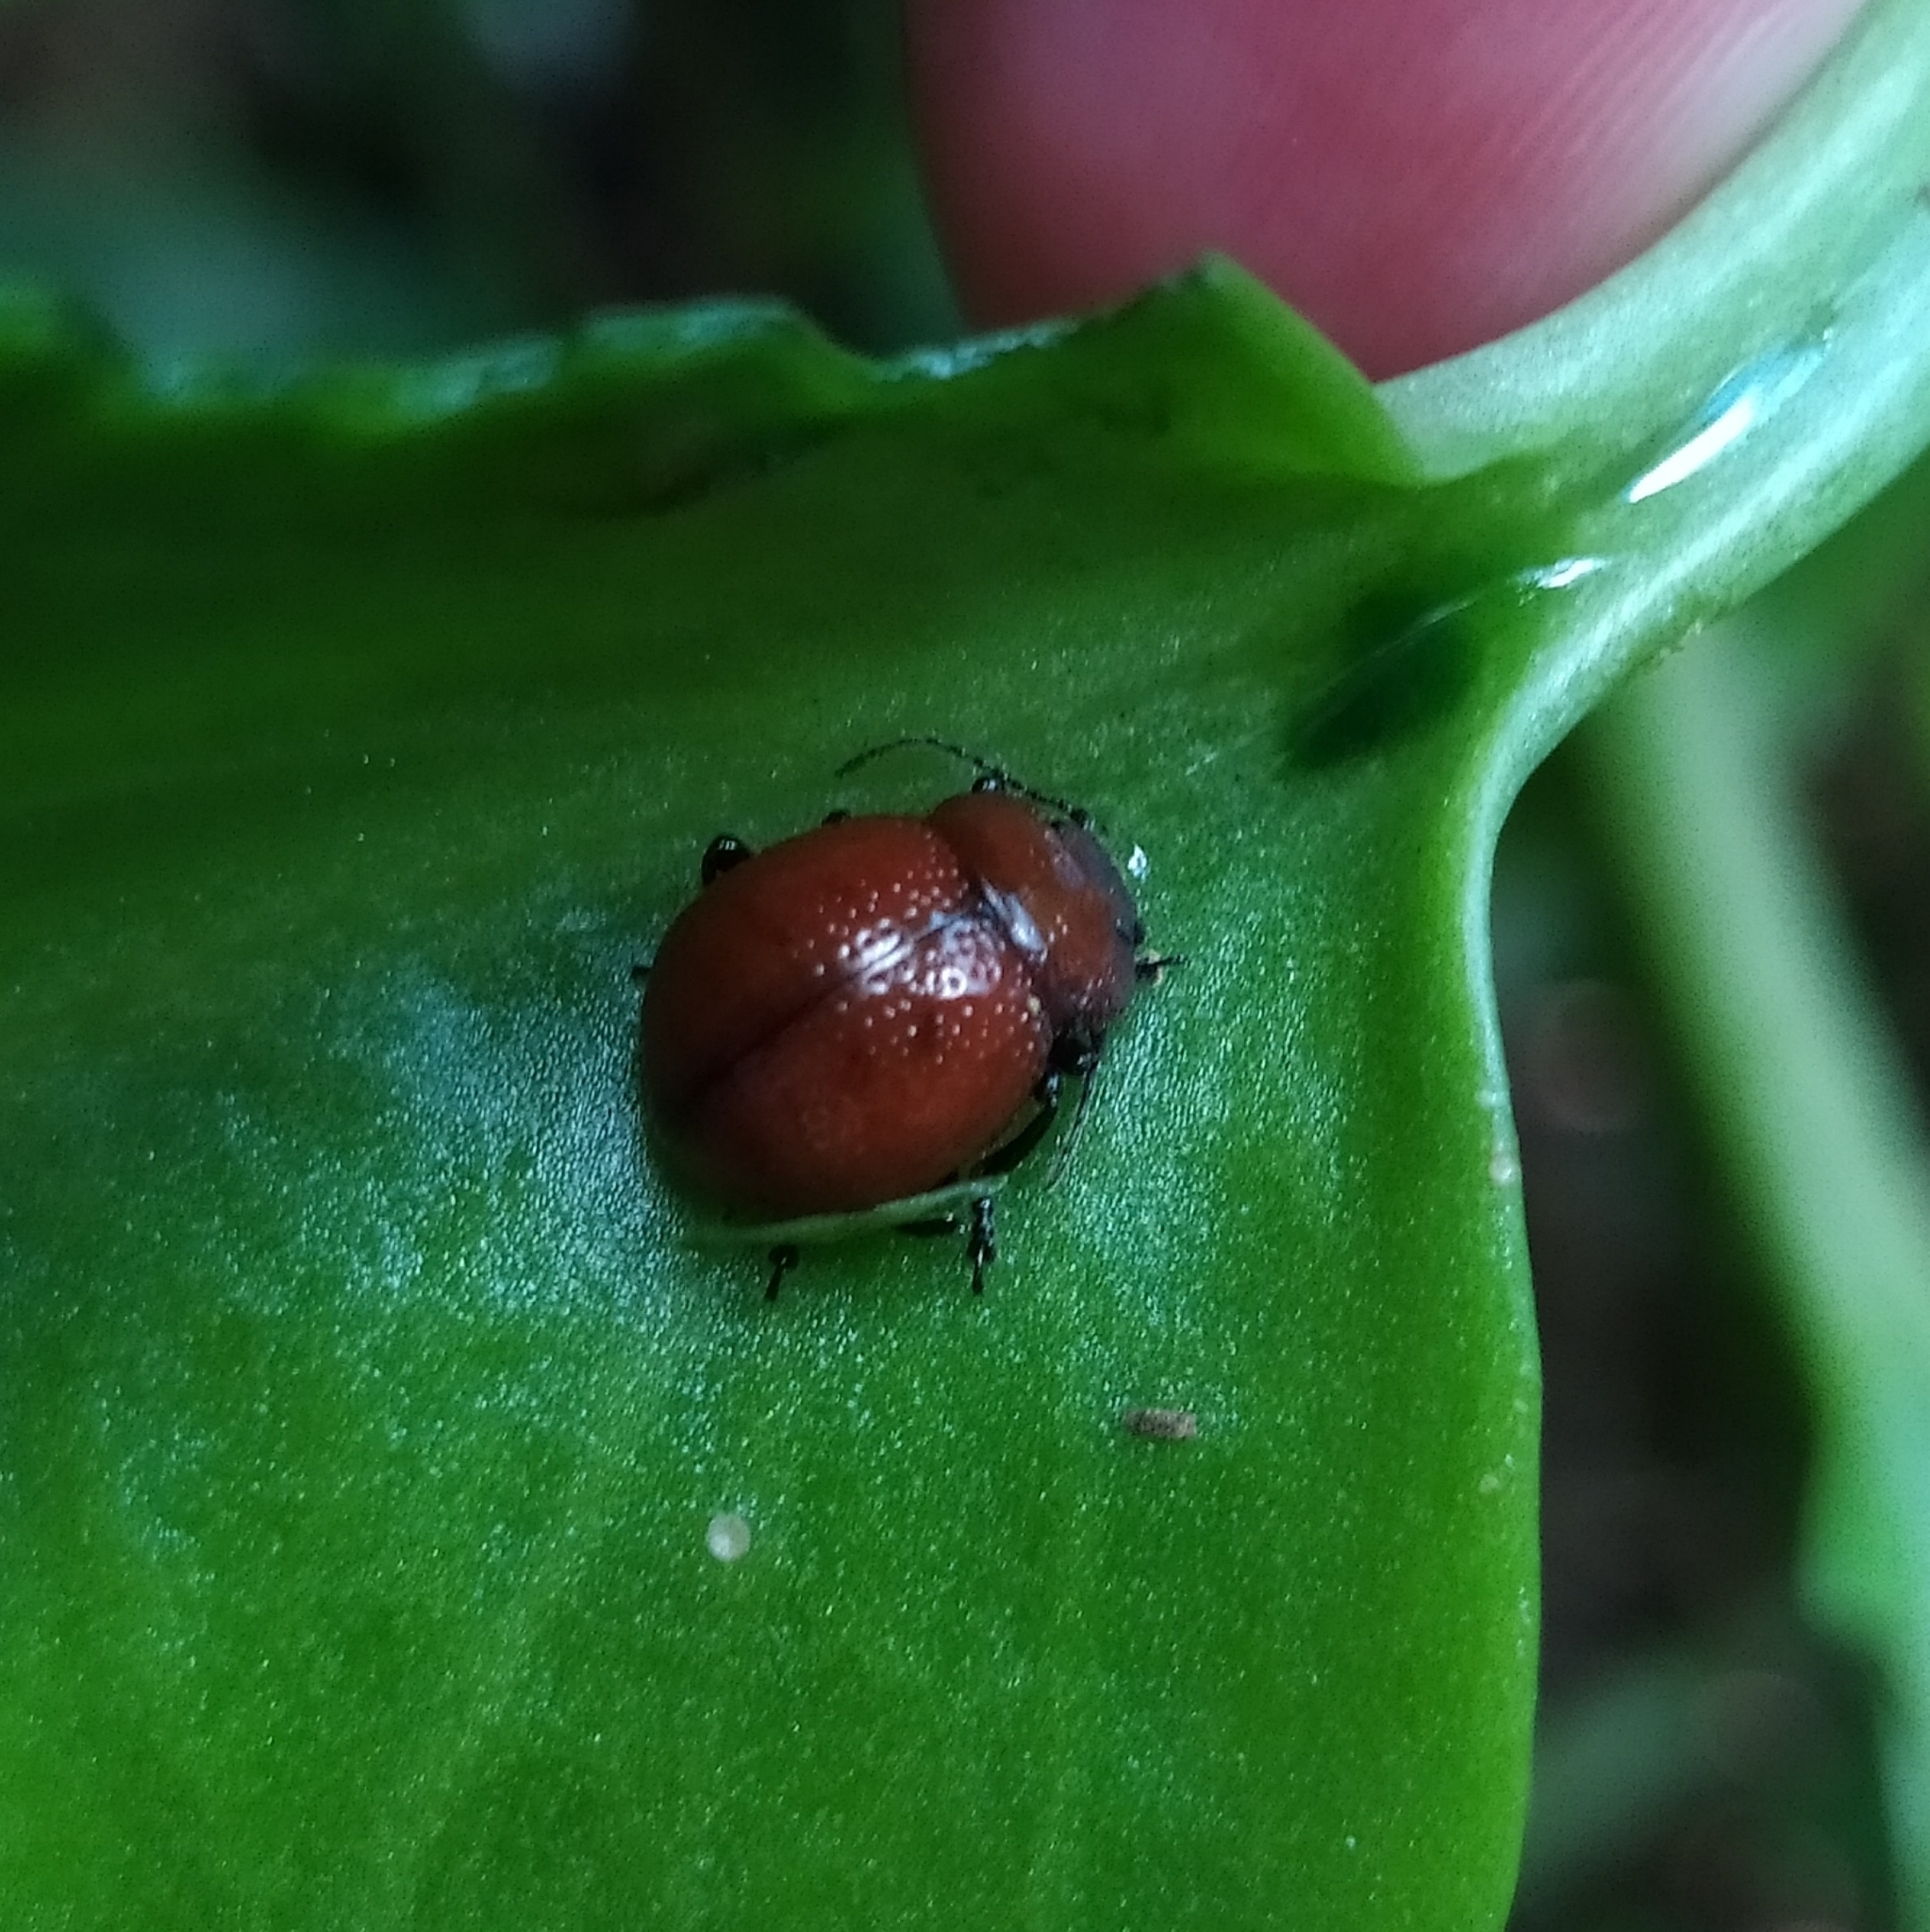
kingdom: Animalia
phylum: Arthropoda
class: Insecta
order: Coleoptera
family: Chrysomelidae
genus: Iscadida
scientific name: Iscadida
